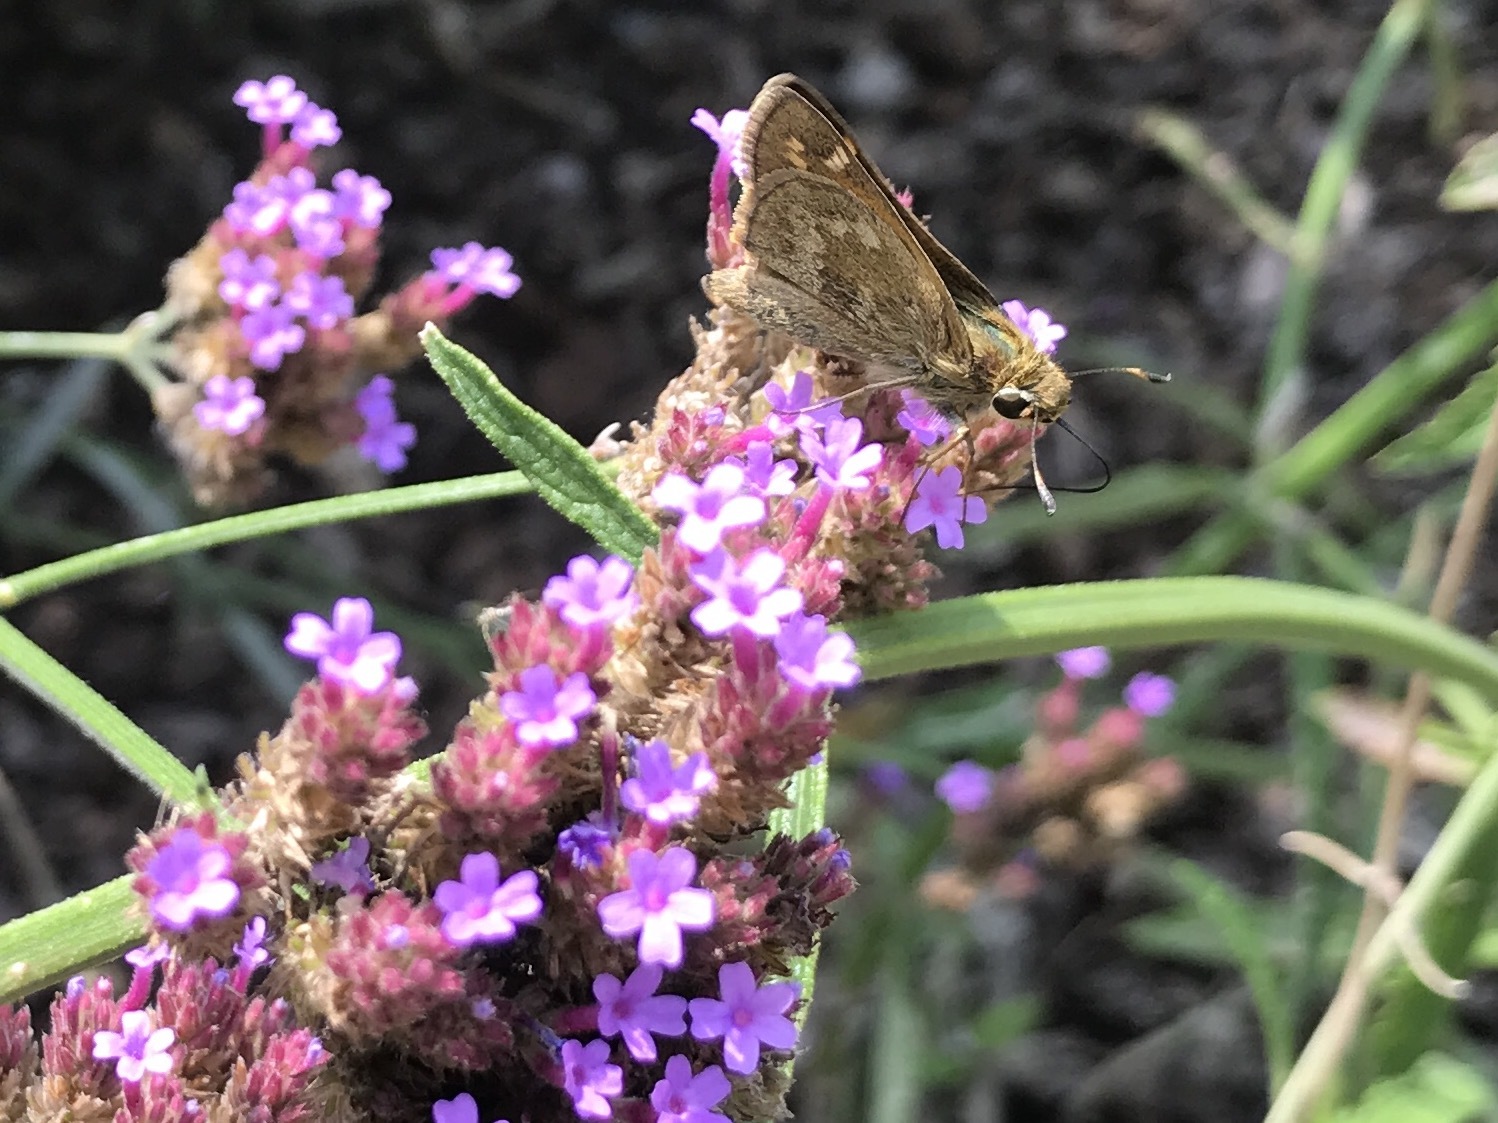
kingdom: Animalia
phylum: Arthropoda
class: Insecta
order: Lepidoptera
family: Hesperiidae
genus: Atalopedes
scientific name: Atalopedes
